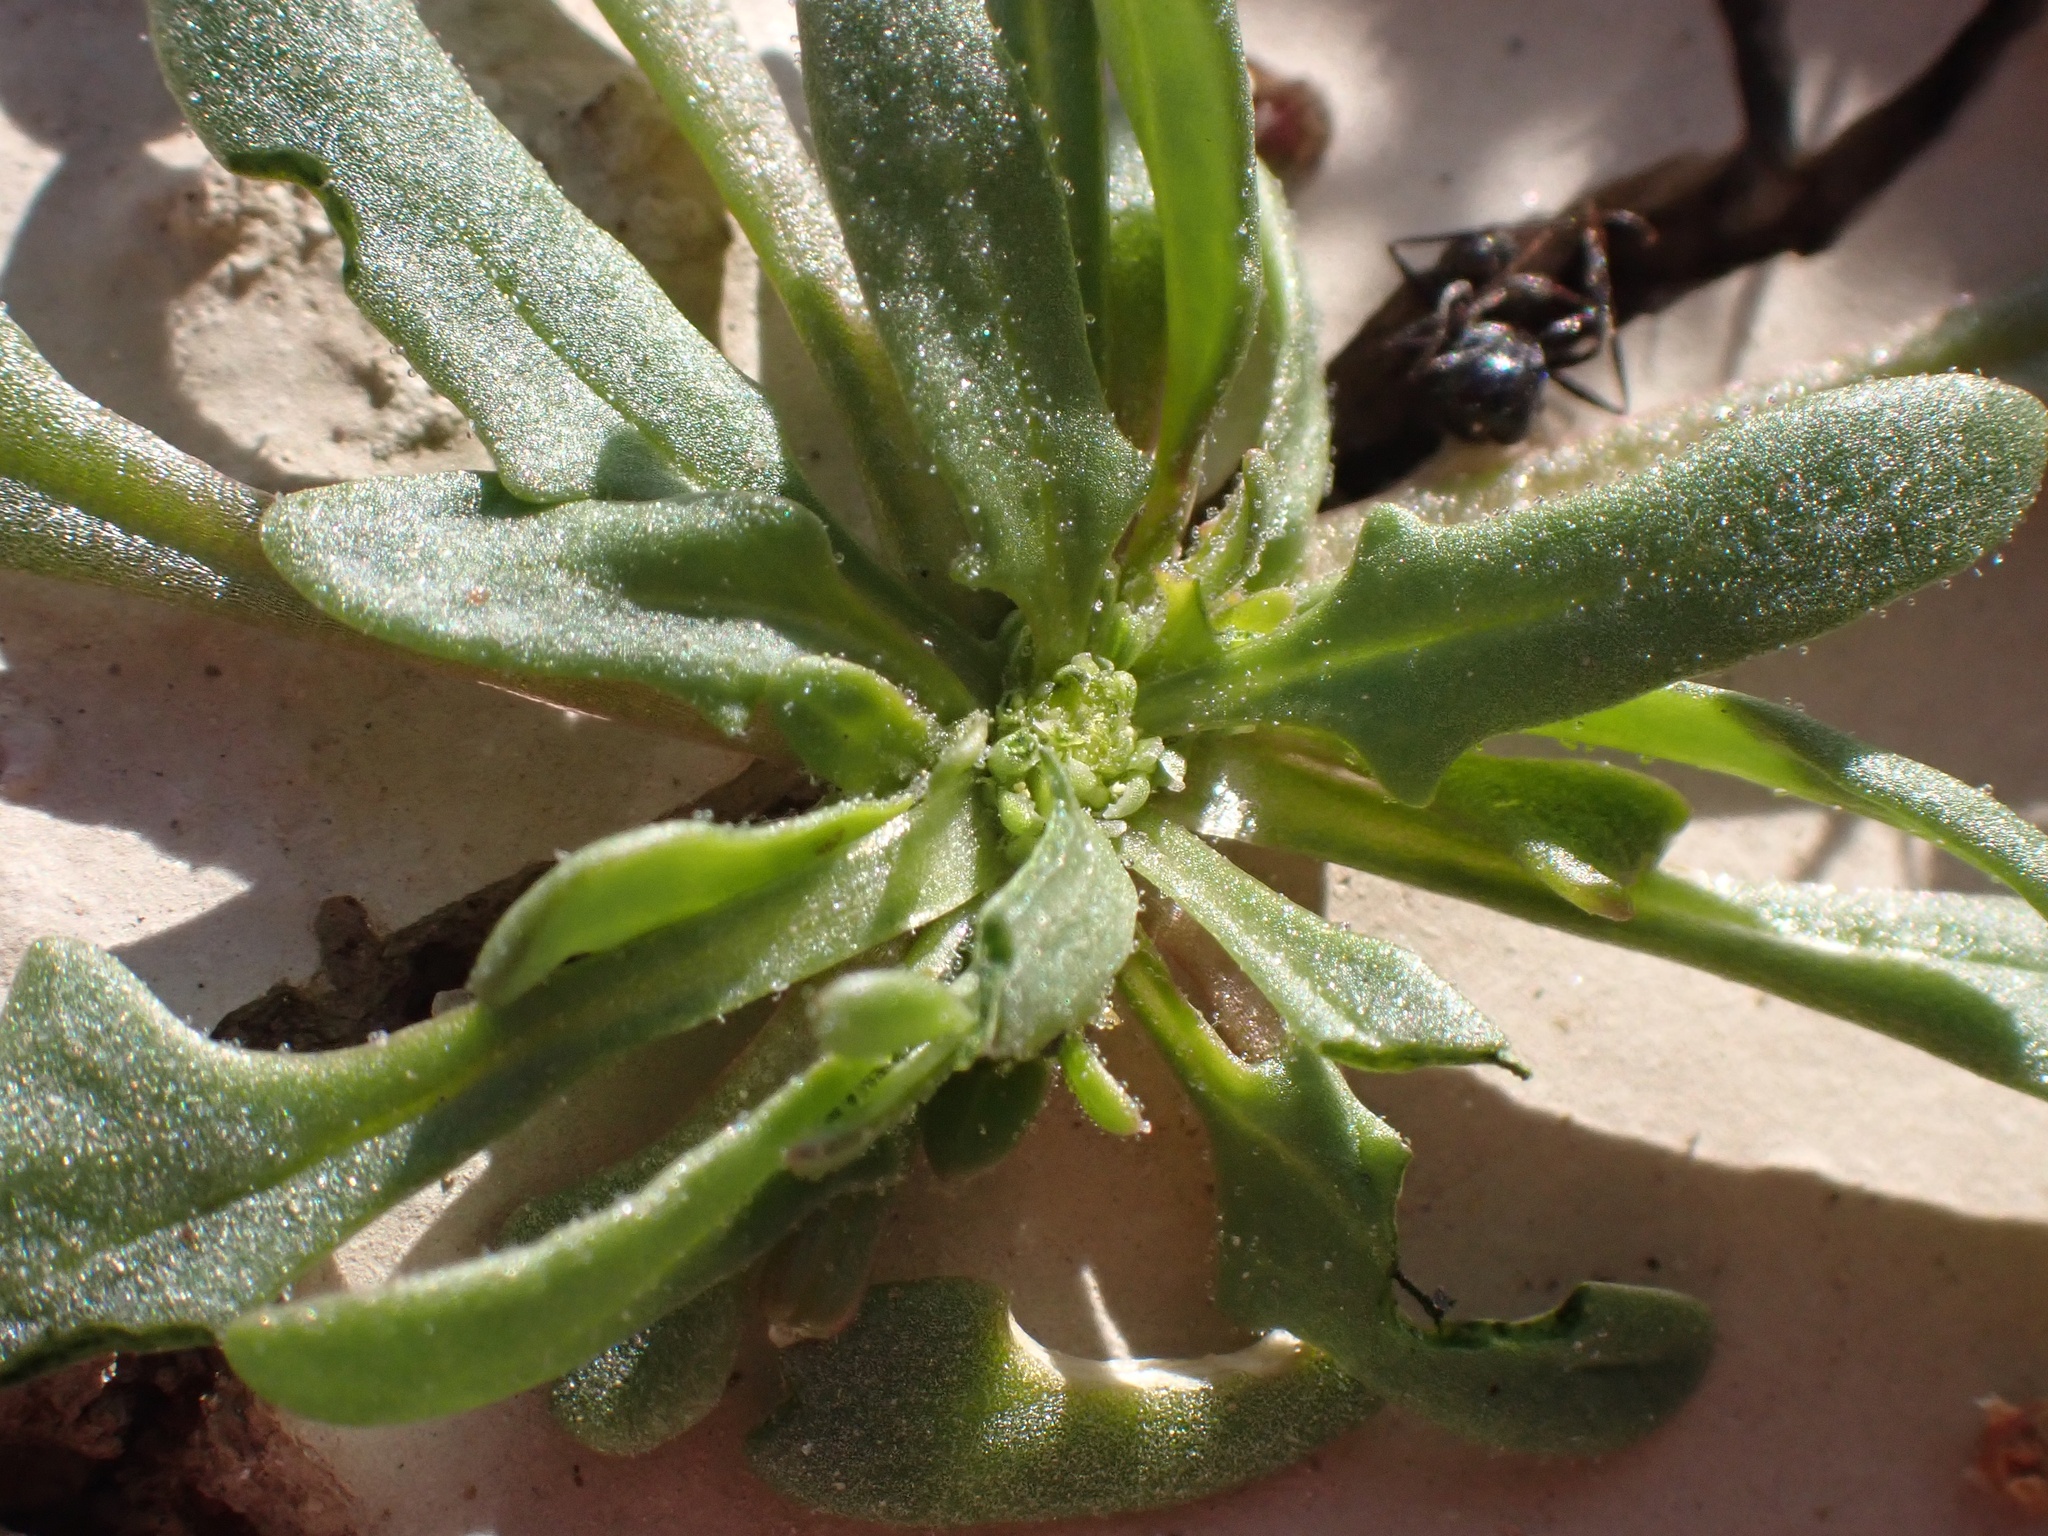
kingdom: Plantae
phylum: Tracheophyta
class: Magnoliopsida
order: Caryophyllales
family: Amaranthaceae
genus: Blitum
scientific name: Blitum nuttallianum
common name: Poverty-weed
